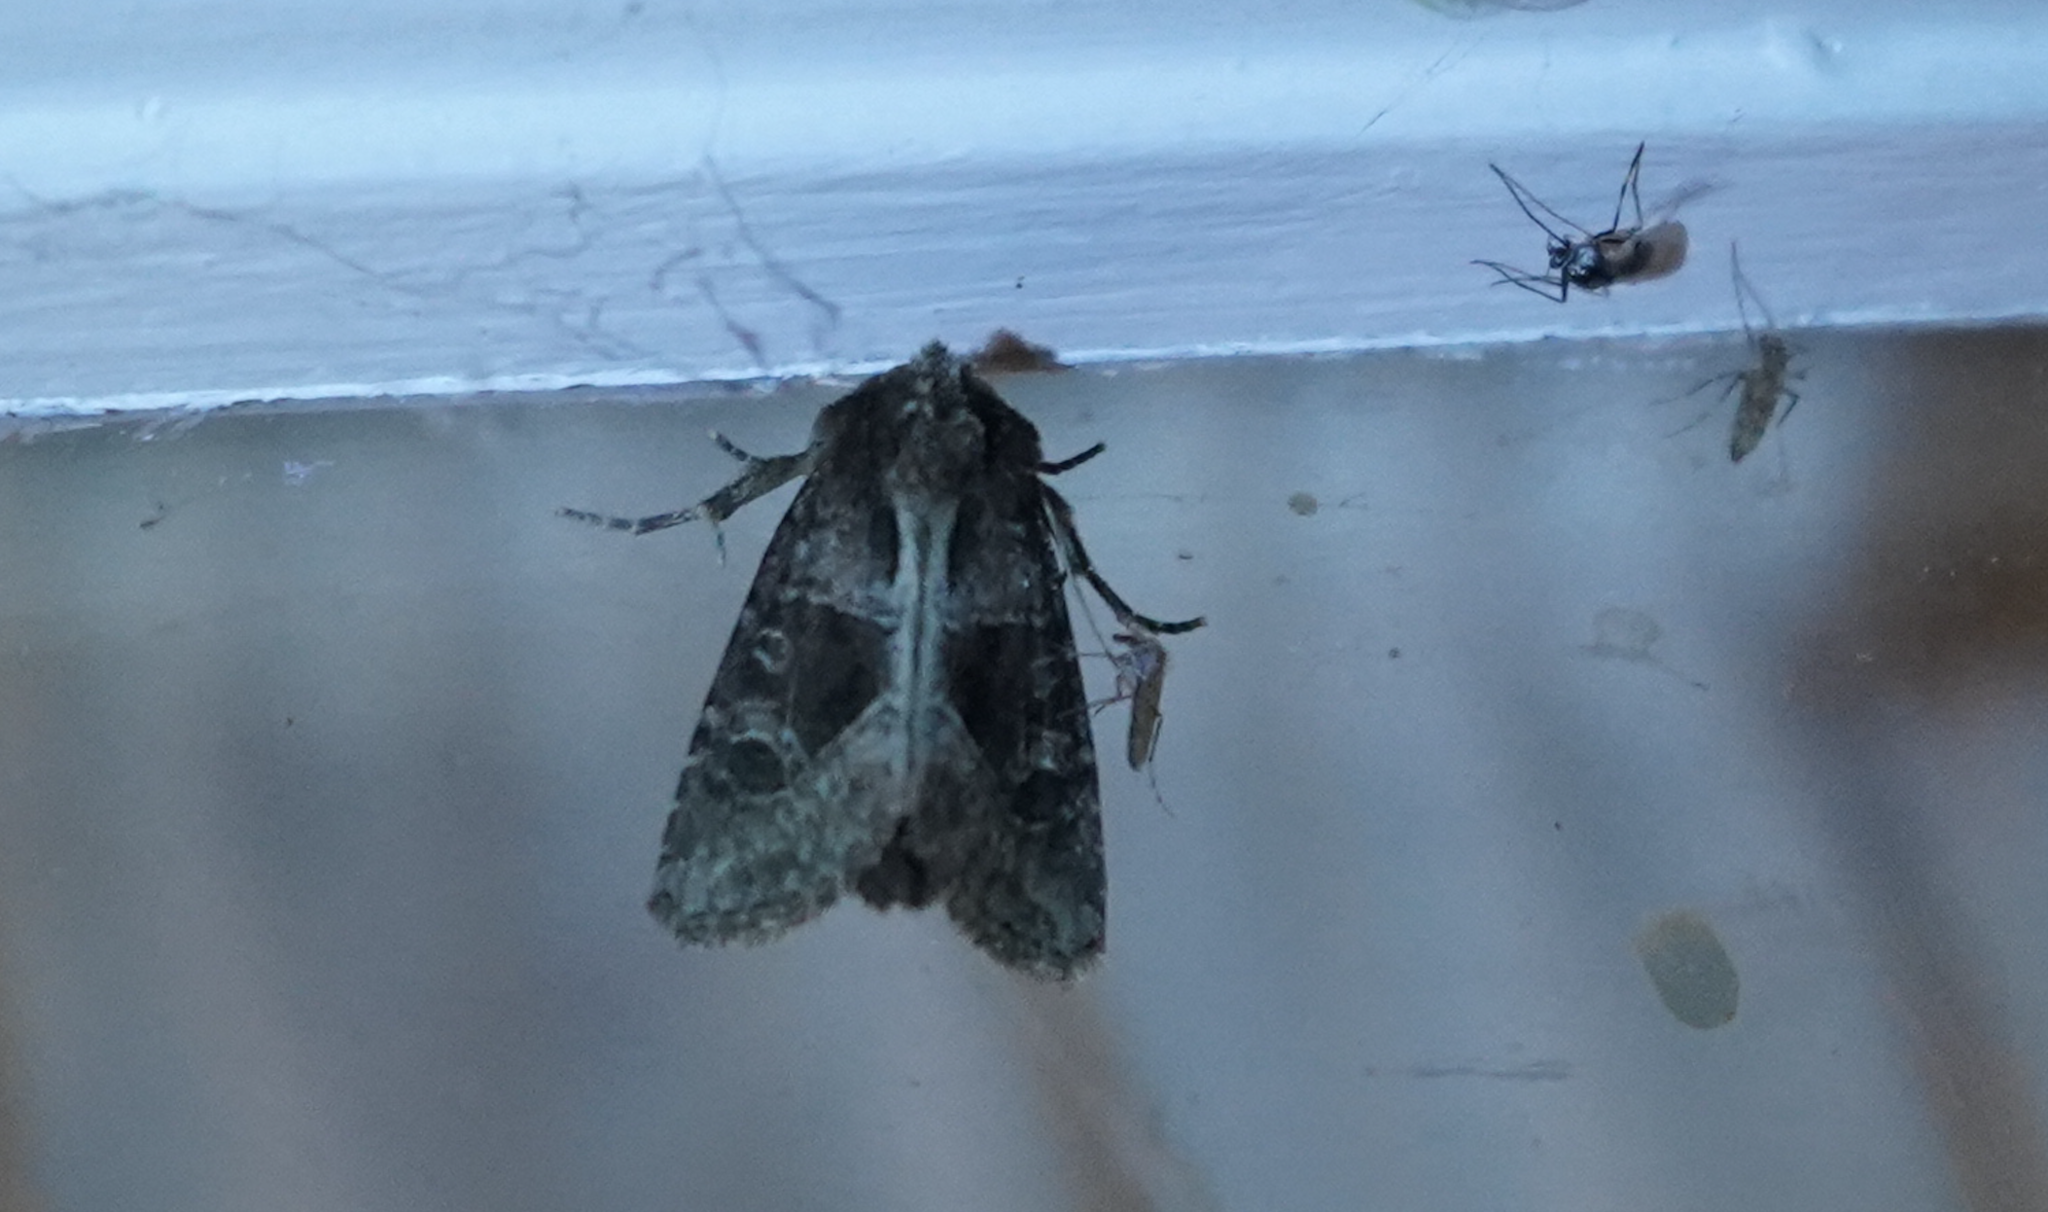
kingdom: Animalia
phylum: Arthropoda
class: Insecta
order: Lepidoptera
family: Noctuidae
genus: Oligia
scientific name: Oligia obtusa
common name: Obtuse sedge borer
